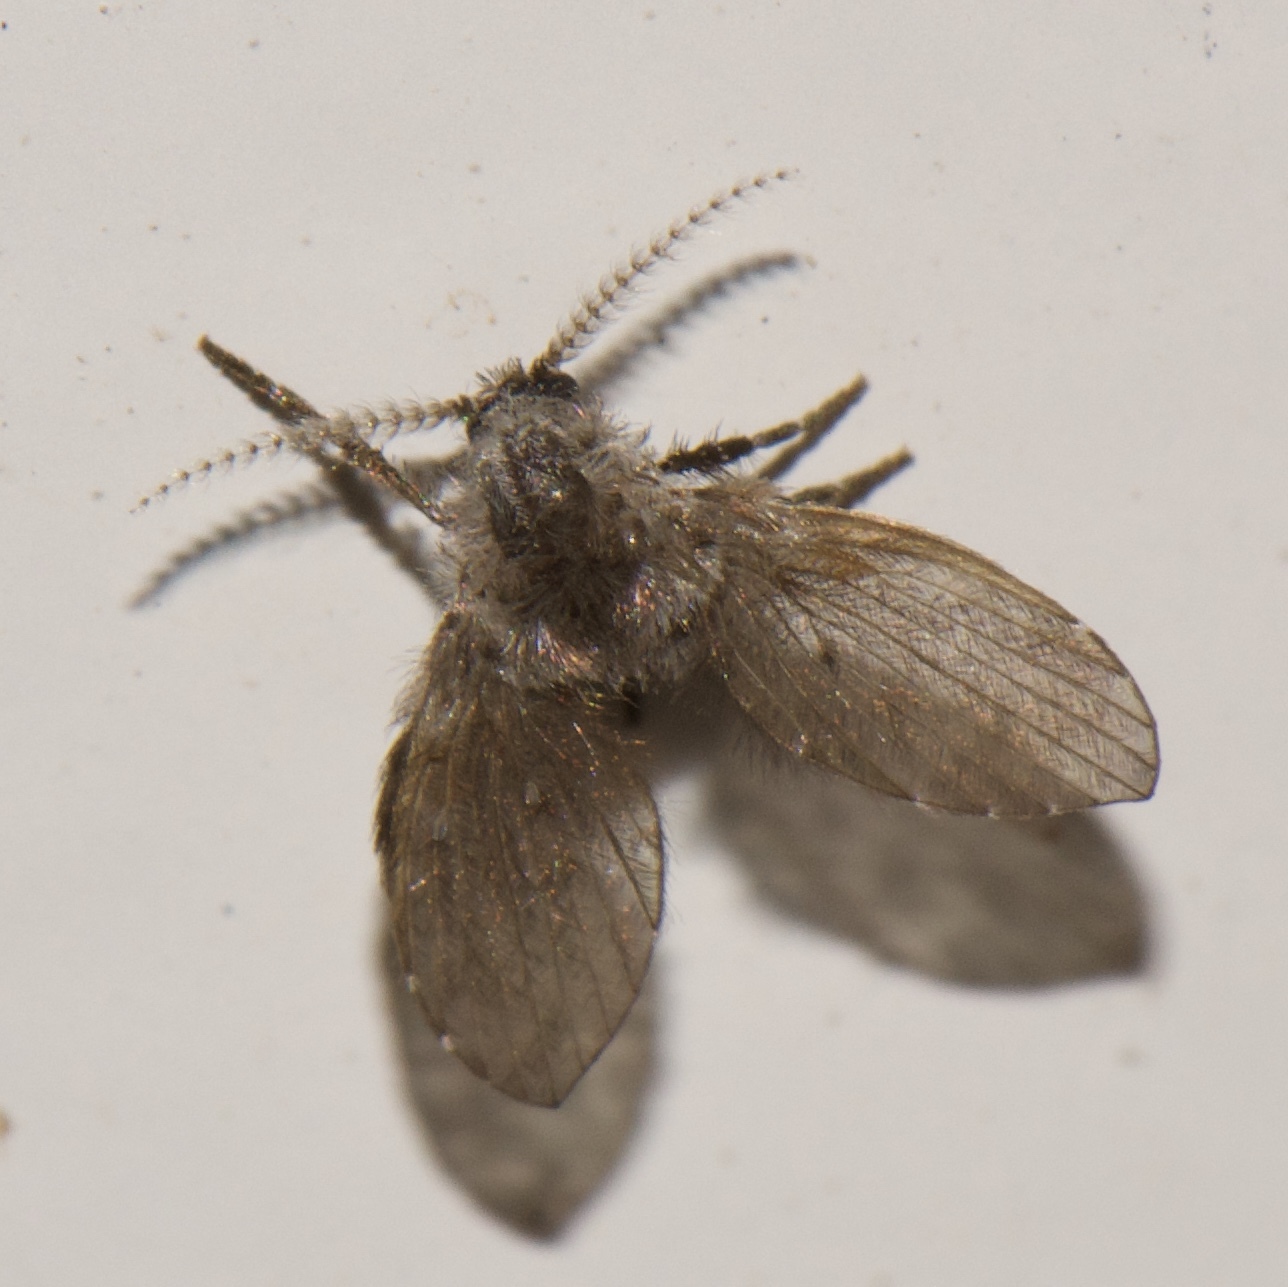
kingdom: Animalia
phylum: Arthropoda
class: Insecta
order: Diptera
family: Psychodidae
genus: Clogmia
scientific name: Clogmia albipunctatus
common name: White-spotted moth fly
